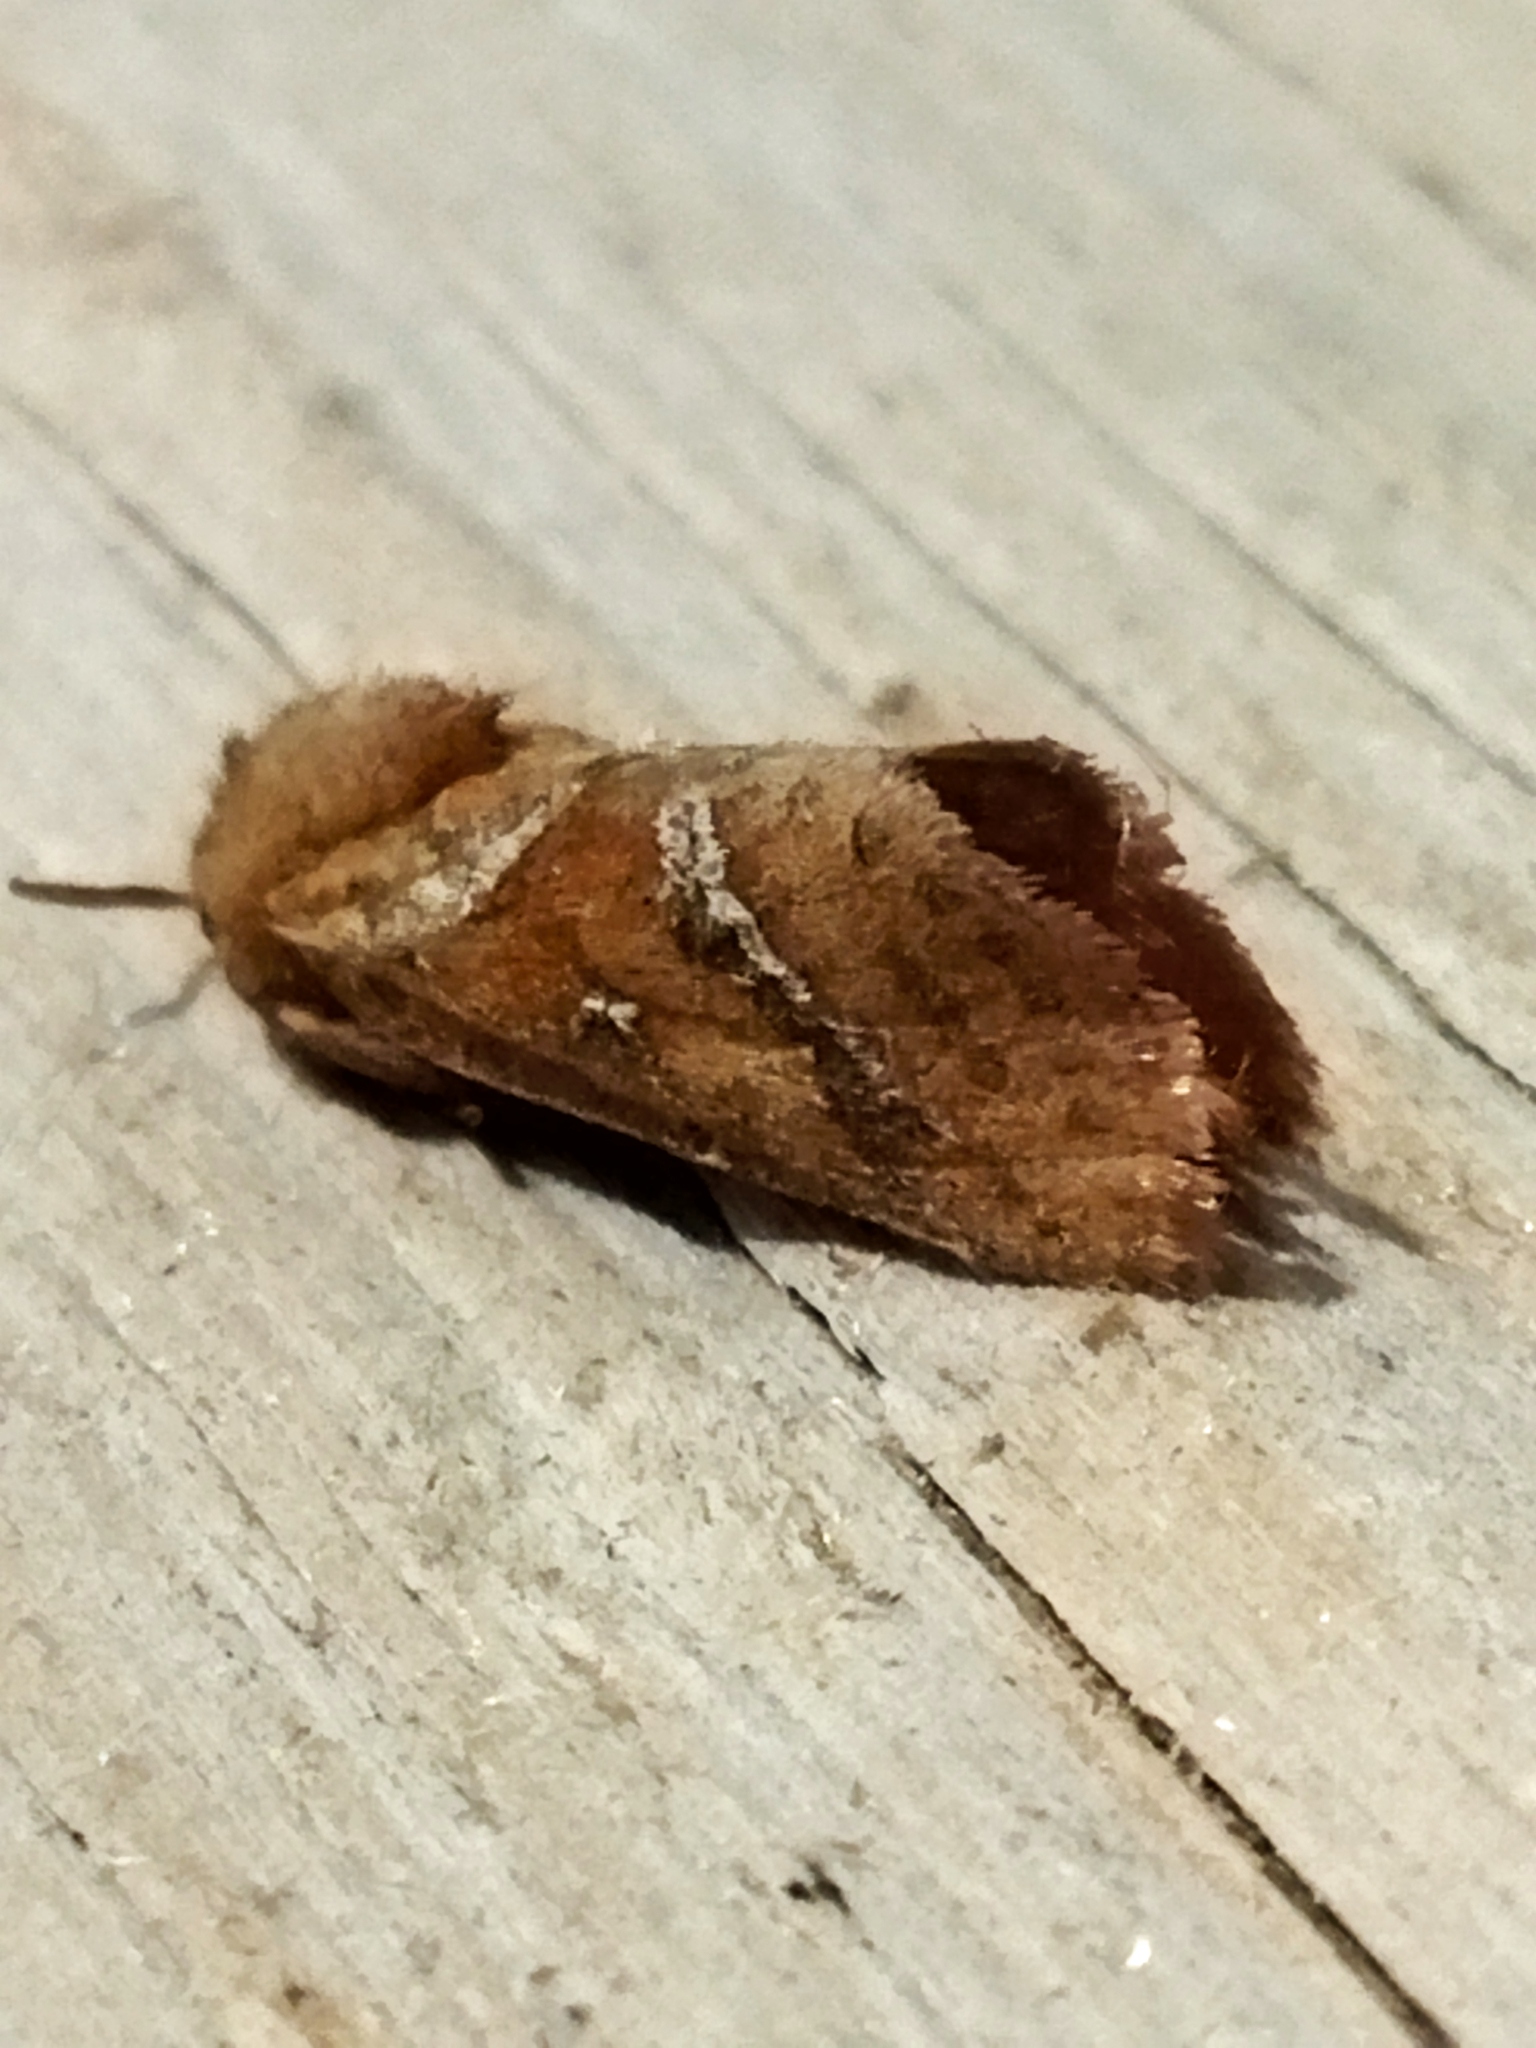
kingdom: Animalia
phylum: Arthropoda
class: Insecta
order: Lepidoptera
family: Hepialidae
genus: Triodia
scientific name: Triodia sylvina
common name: Orange swift
